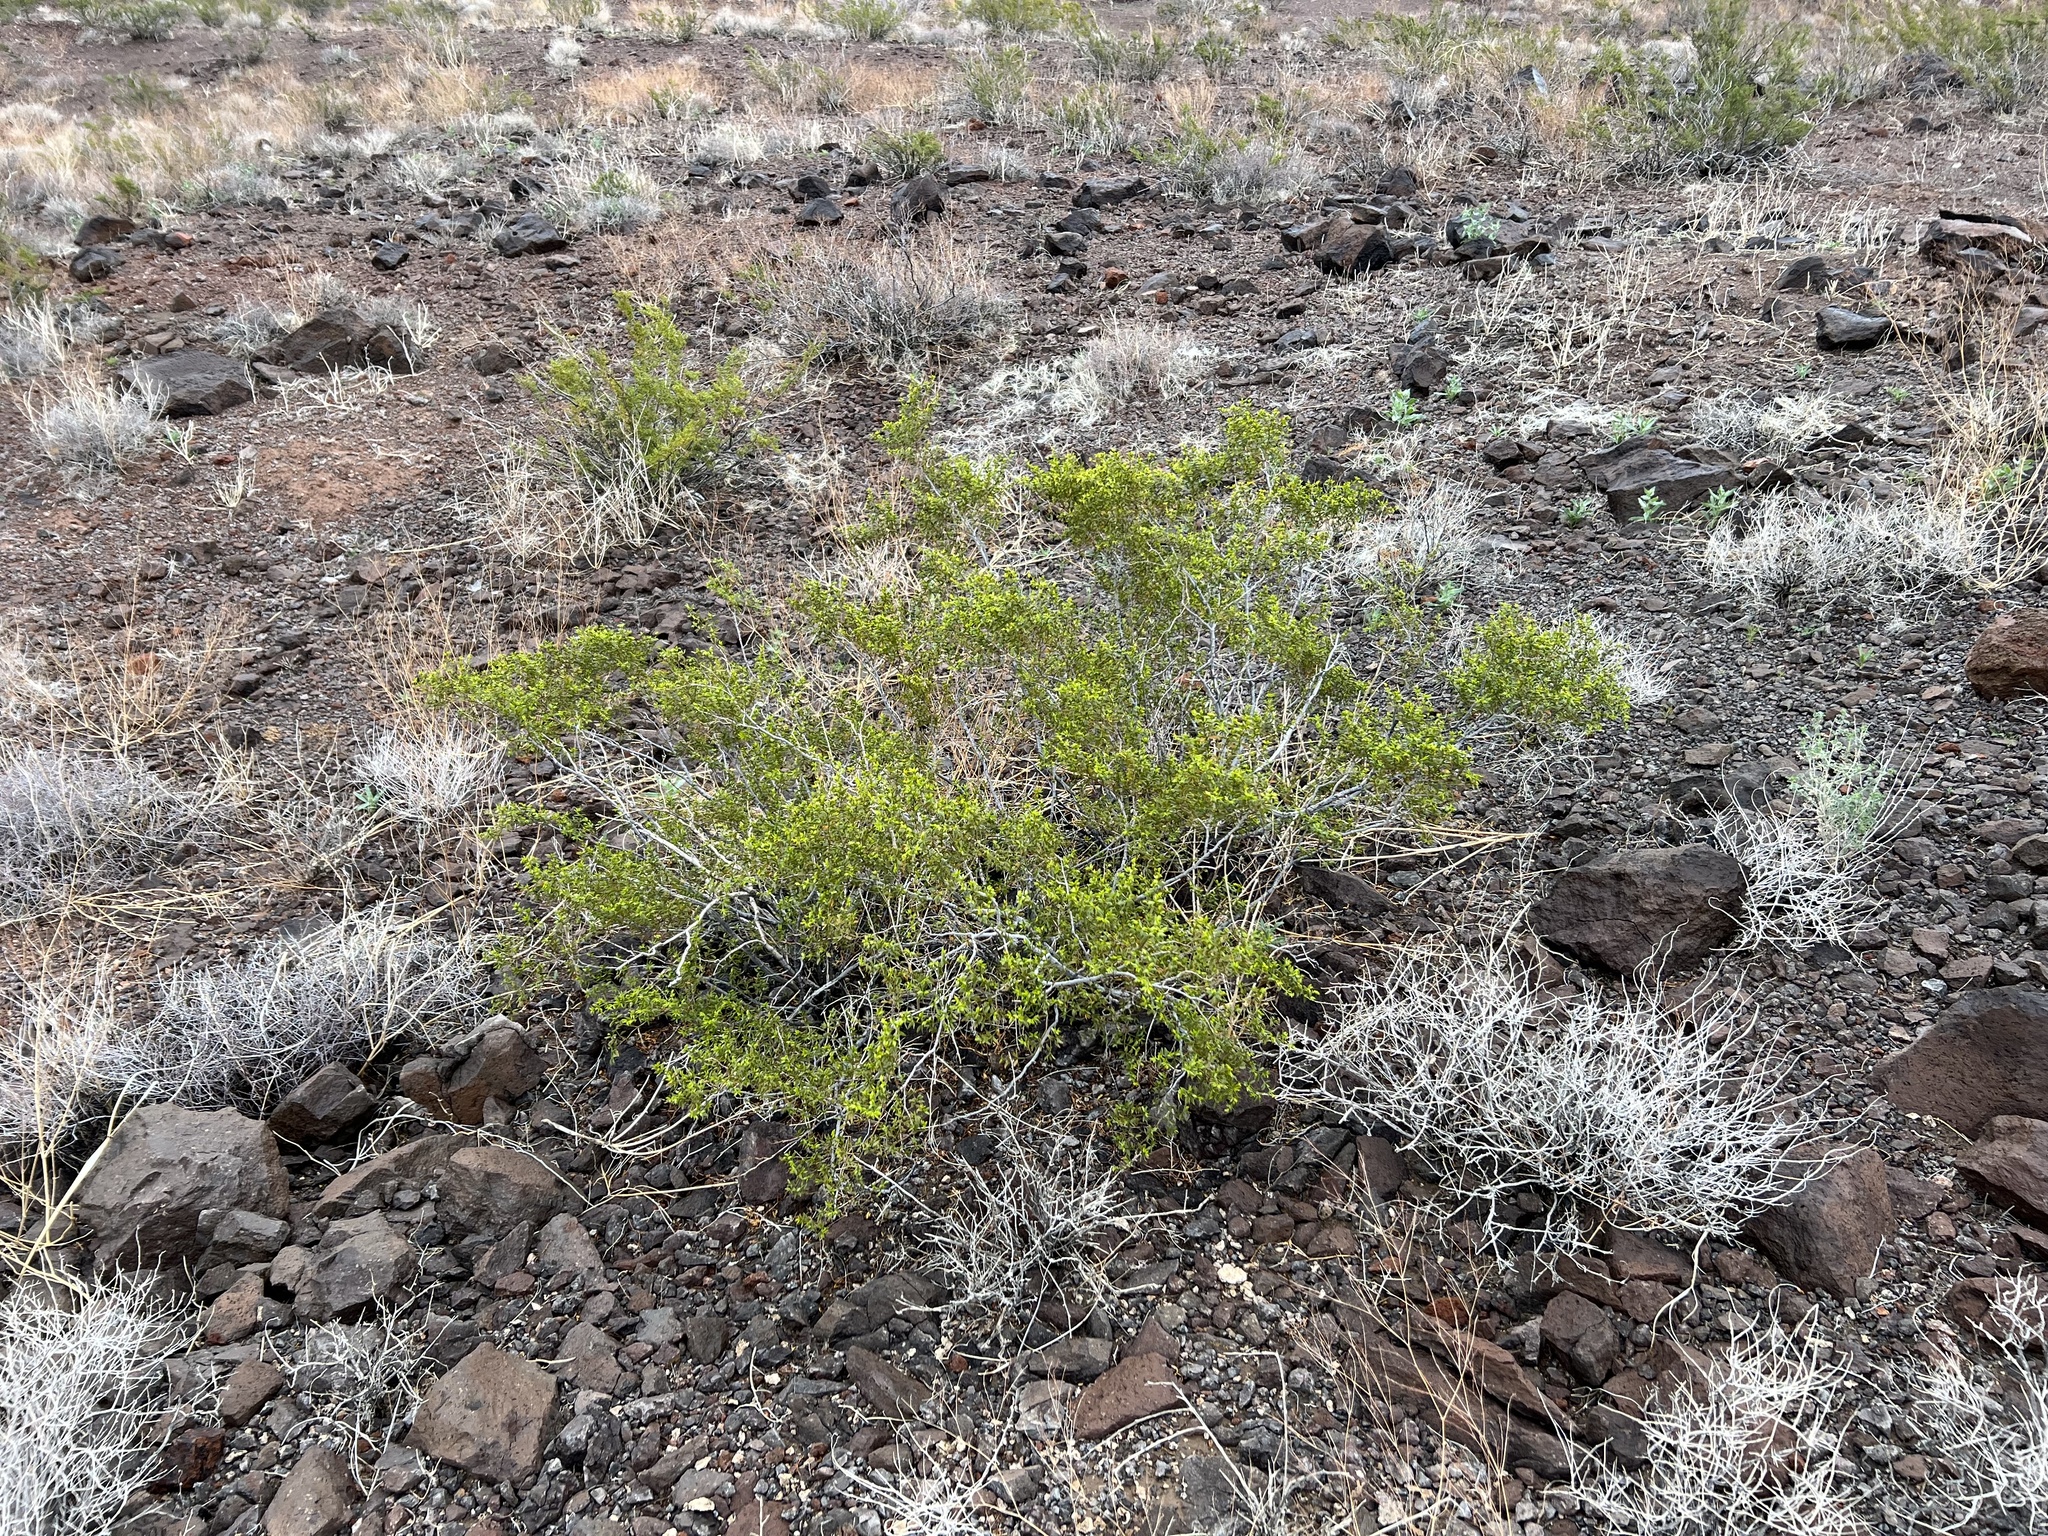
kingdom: Plantae
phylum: Tracheophyta
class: Magnoliopsida
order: Zygophyllales
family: Zygophyllaceae
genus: Larrea
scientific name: Larrea tridentata
